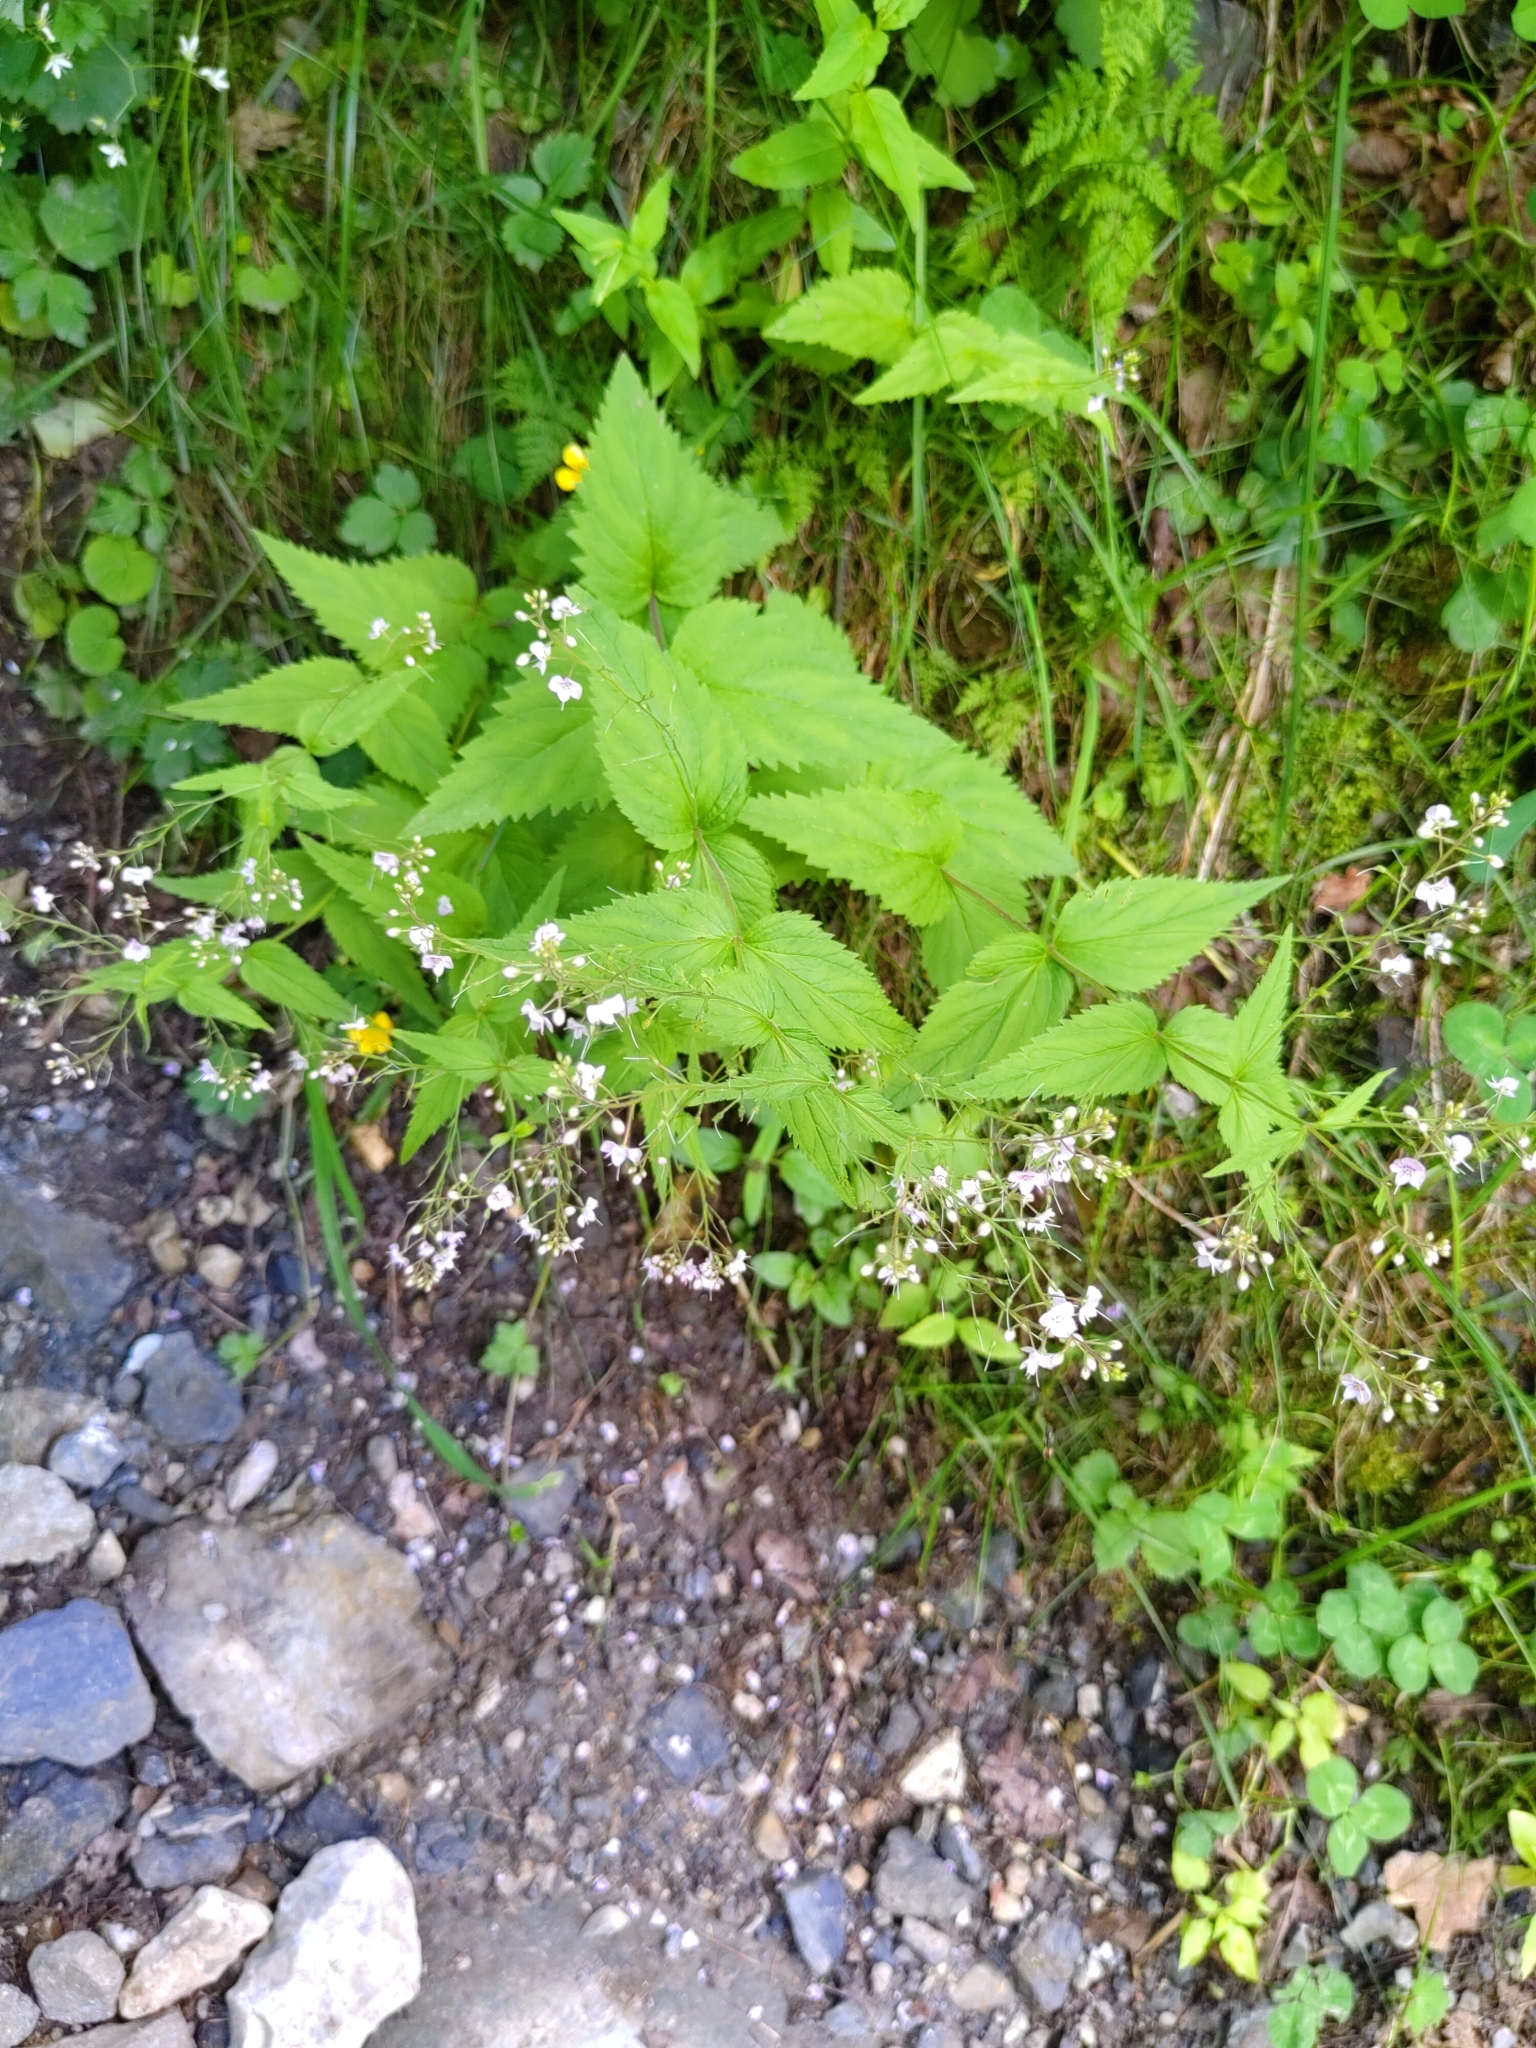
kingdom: Plantae
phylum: Tracheophyta
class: Magnoliopsida
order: Lamiales
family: Plantaginaceae
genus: Veronica
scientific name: Veronica urticifolia
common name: Nettle-leaf speedwell
